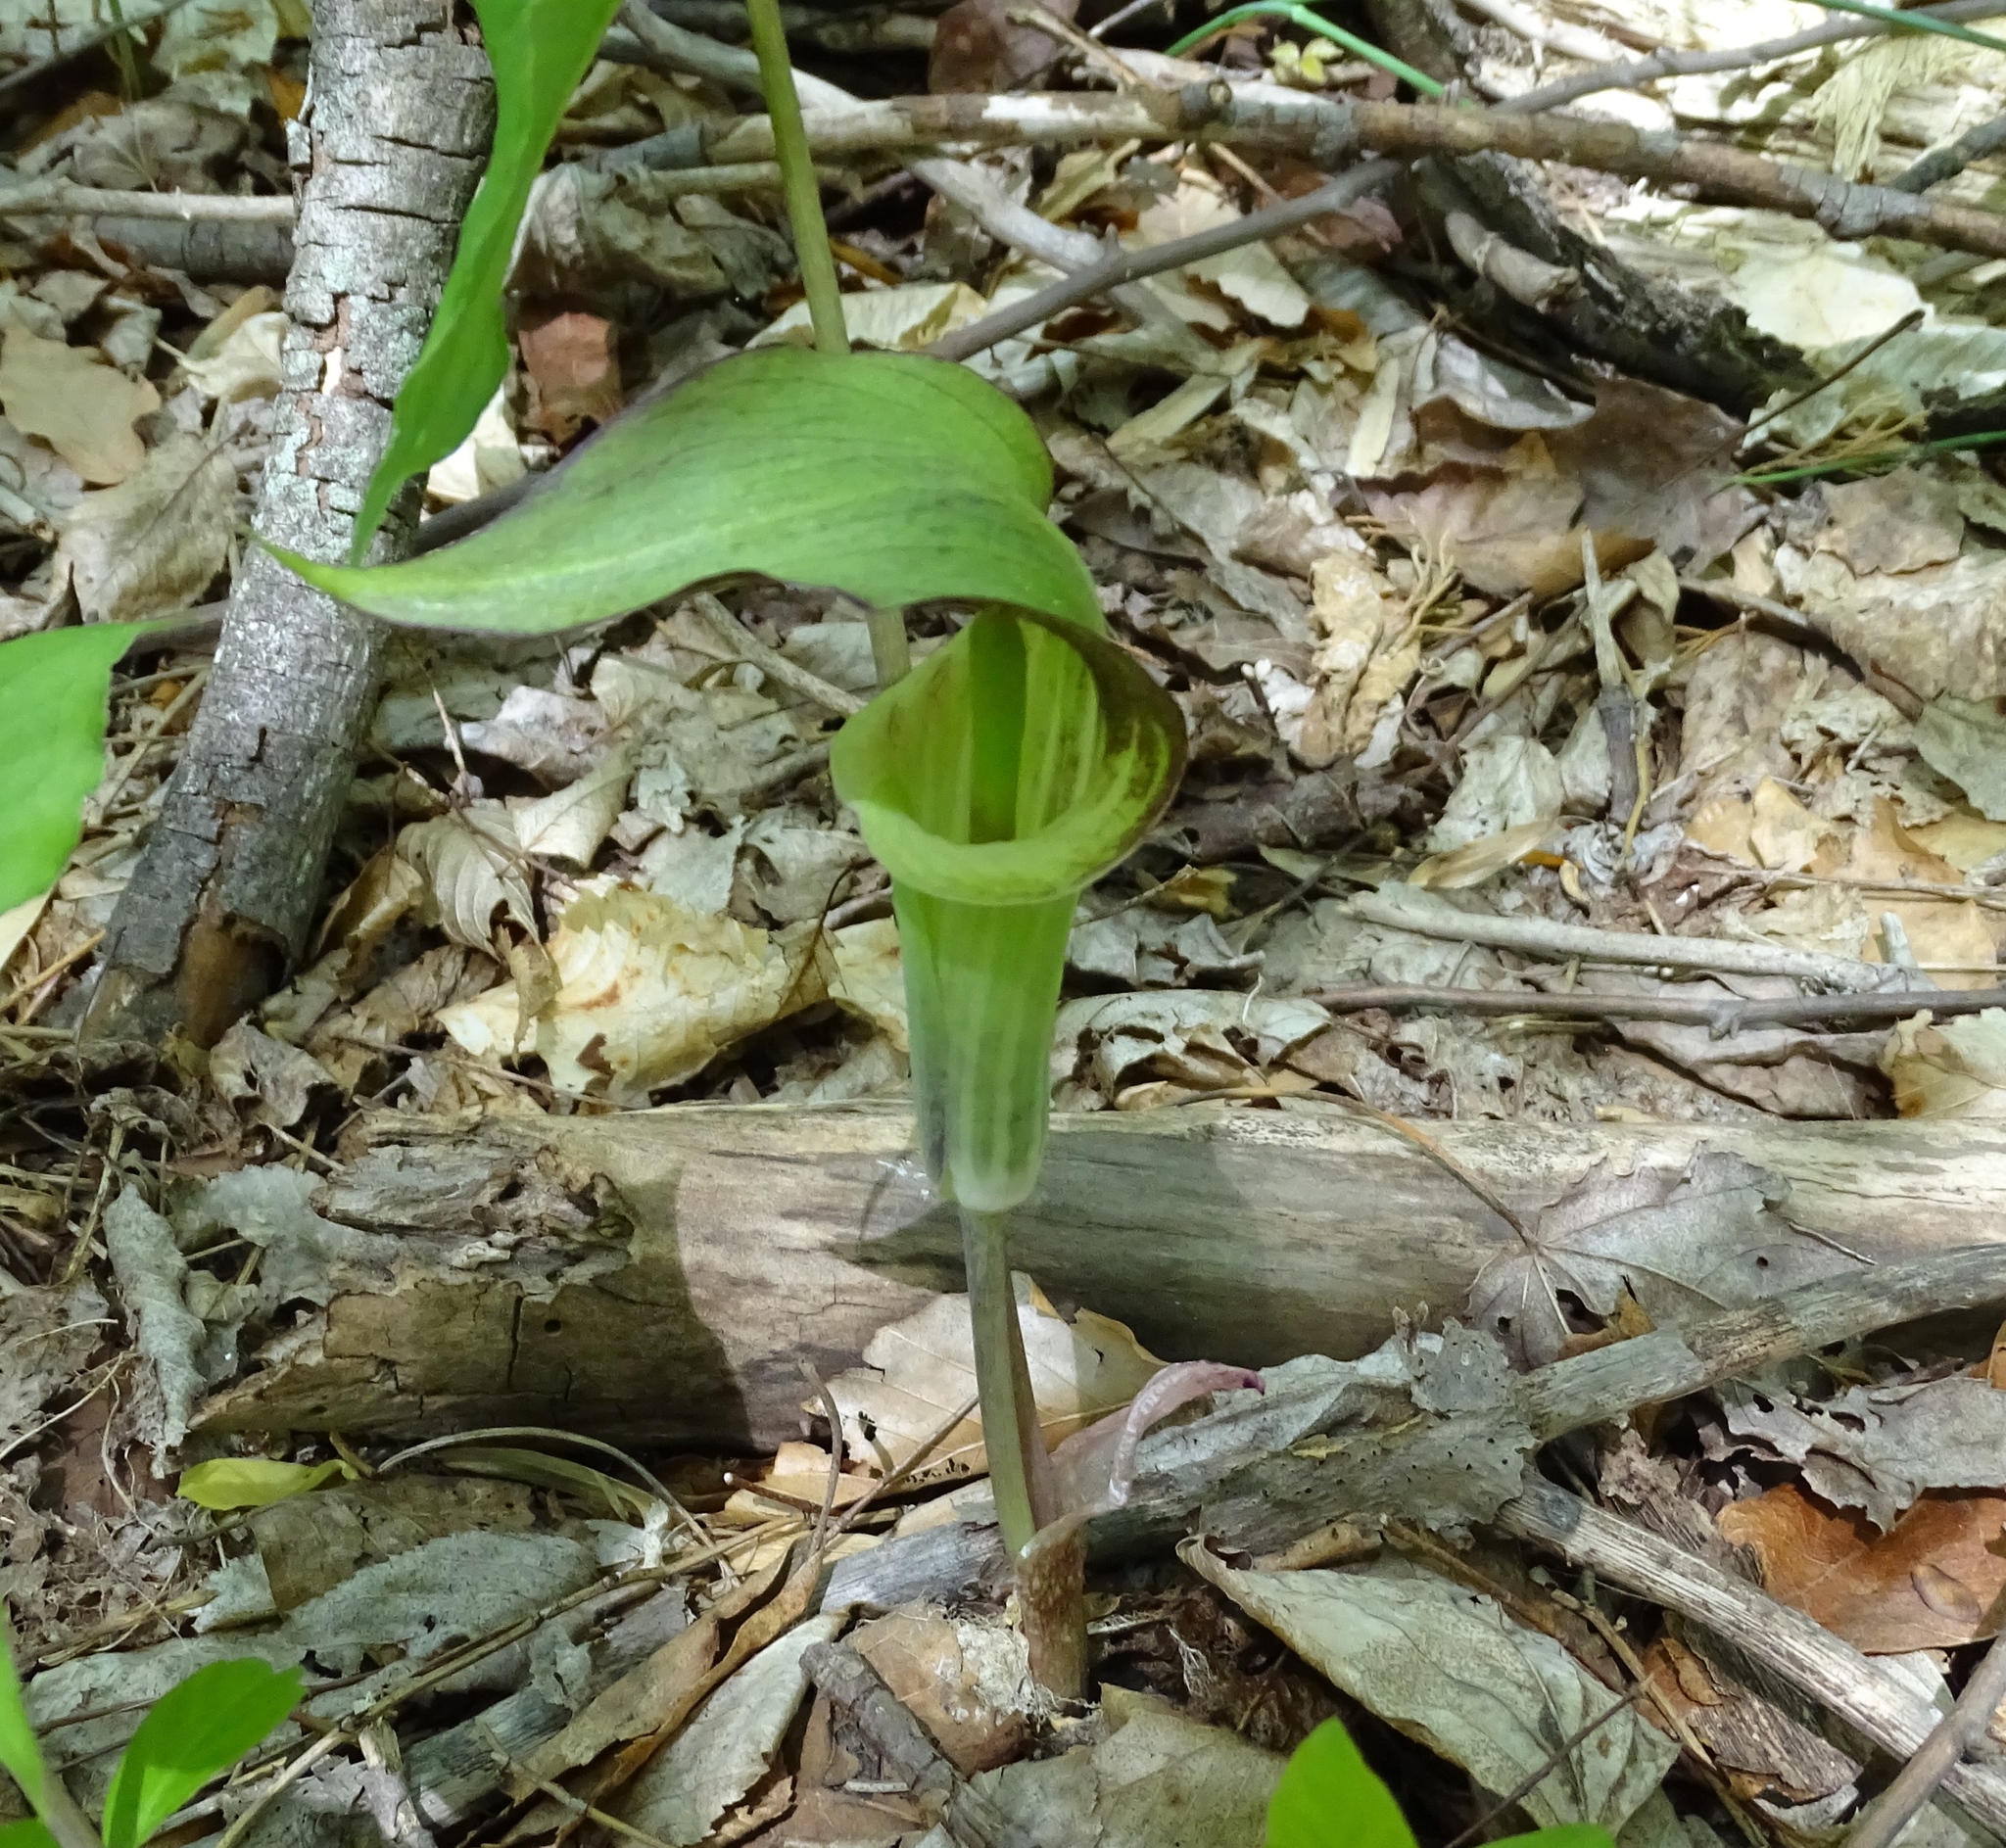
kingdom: Plantae
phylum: Tracheophyta
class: Liliopsida
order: Alismatales
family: Araceae
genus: Arisaema
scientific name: Arisaema triphyllum
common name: Jack-in-the-pulpit
